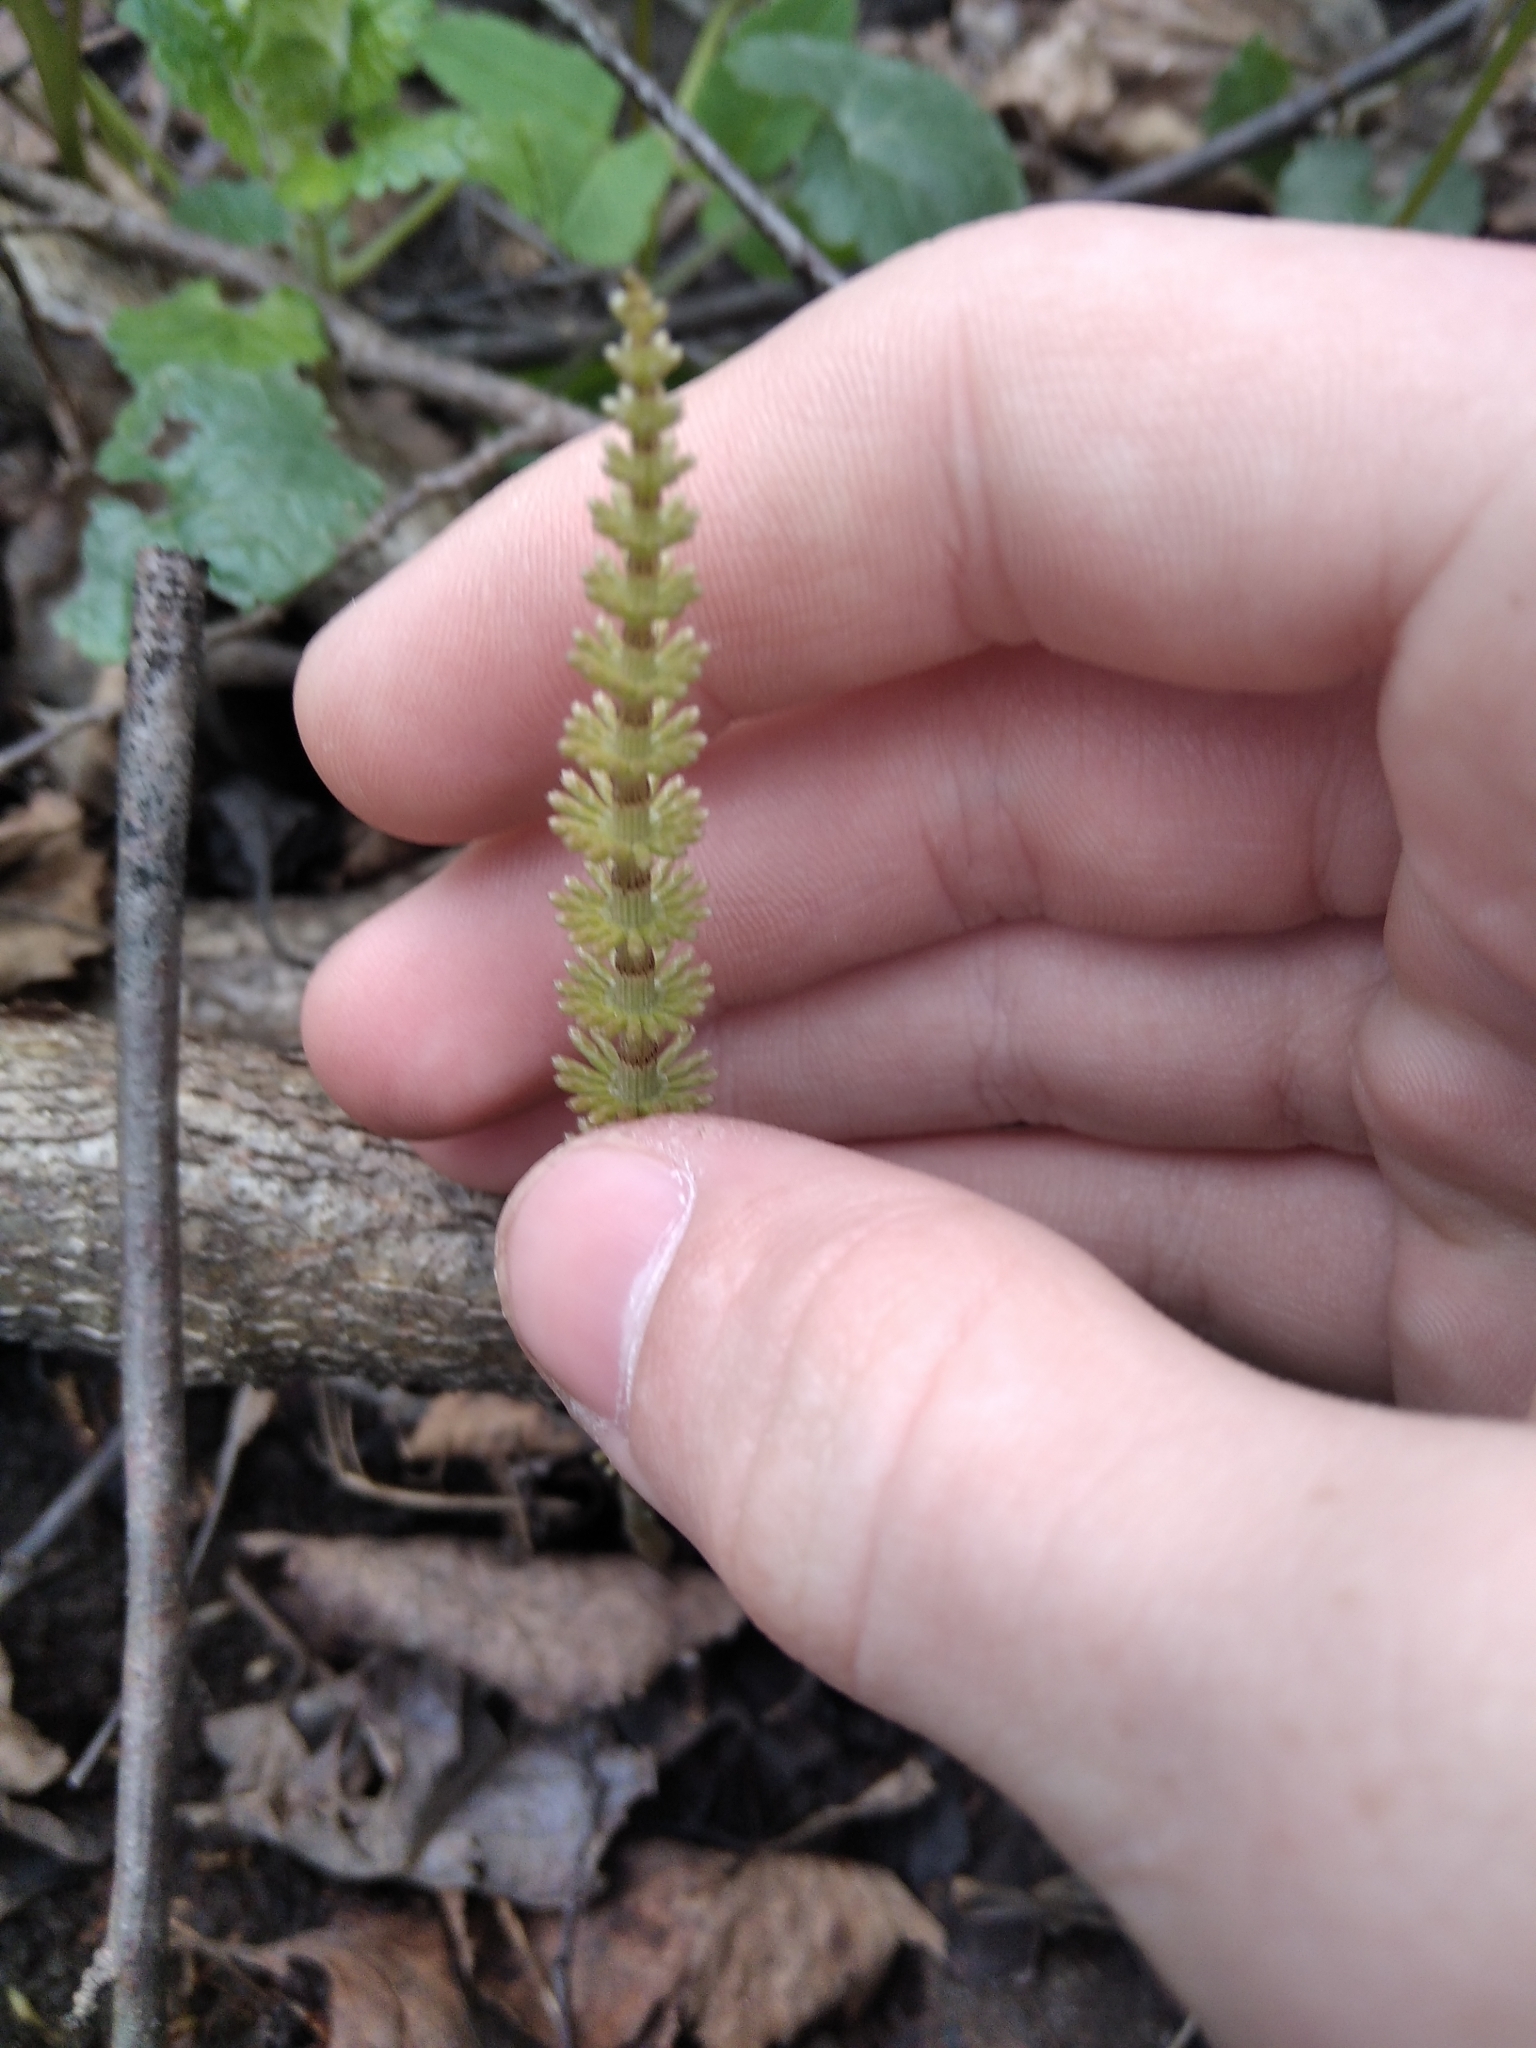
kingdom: Plantae
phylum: Tracheophyta
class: Polypodiopsida
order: Equisetales
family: Equisetaceae
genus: Equisetum
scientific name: Equisetum pratense
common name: Meadow horsetail
